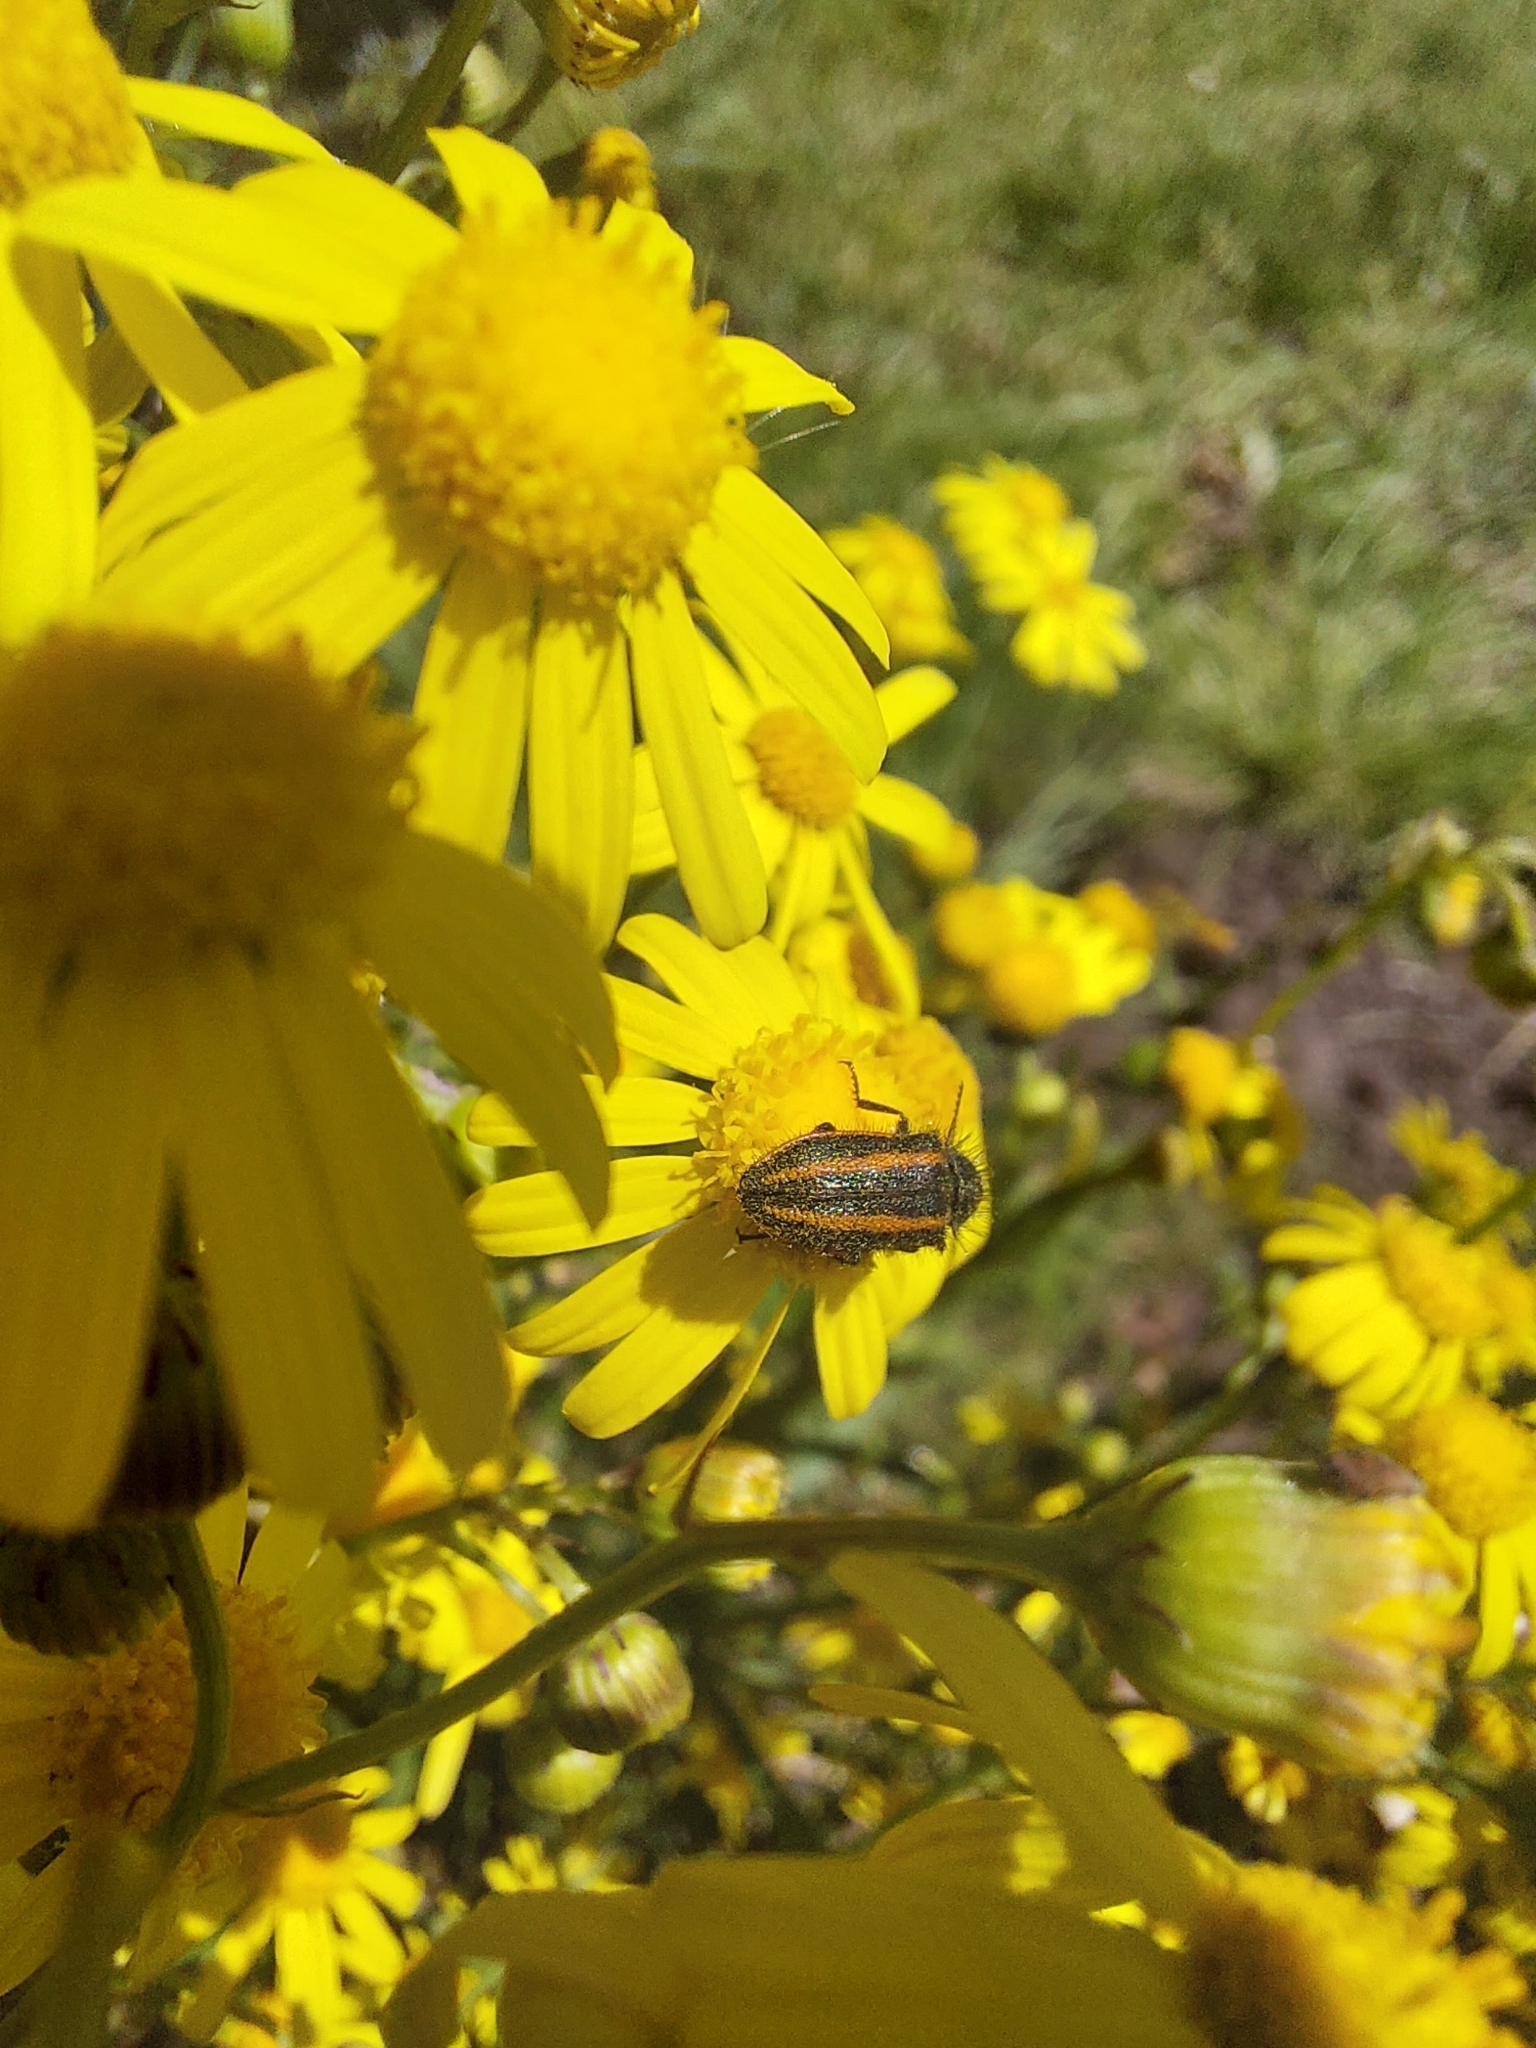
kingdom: Animalia
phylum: Arthropoda
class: Insecta
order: Coleoptera
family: Melyridae
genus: Astylus
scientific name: Astylus
